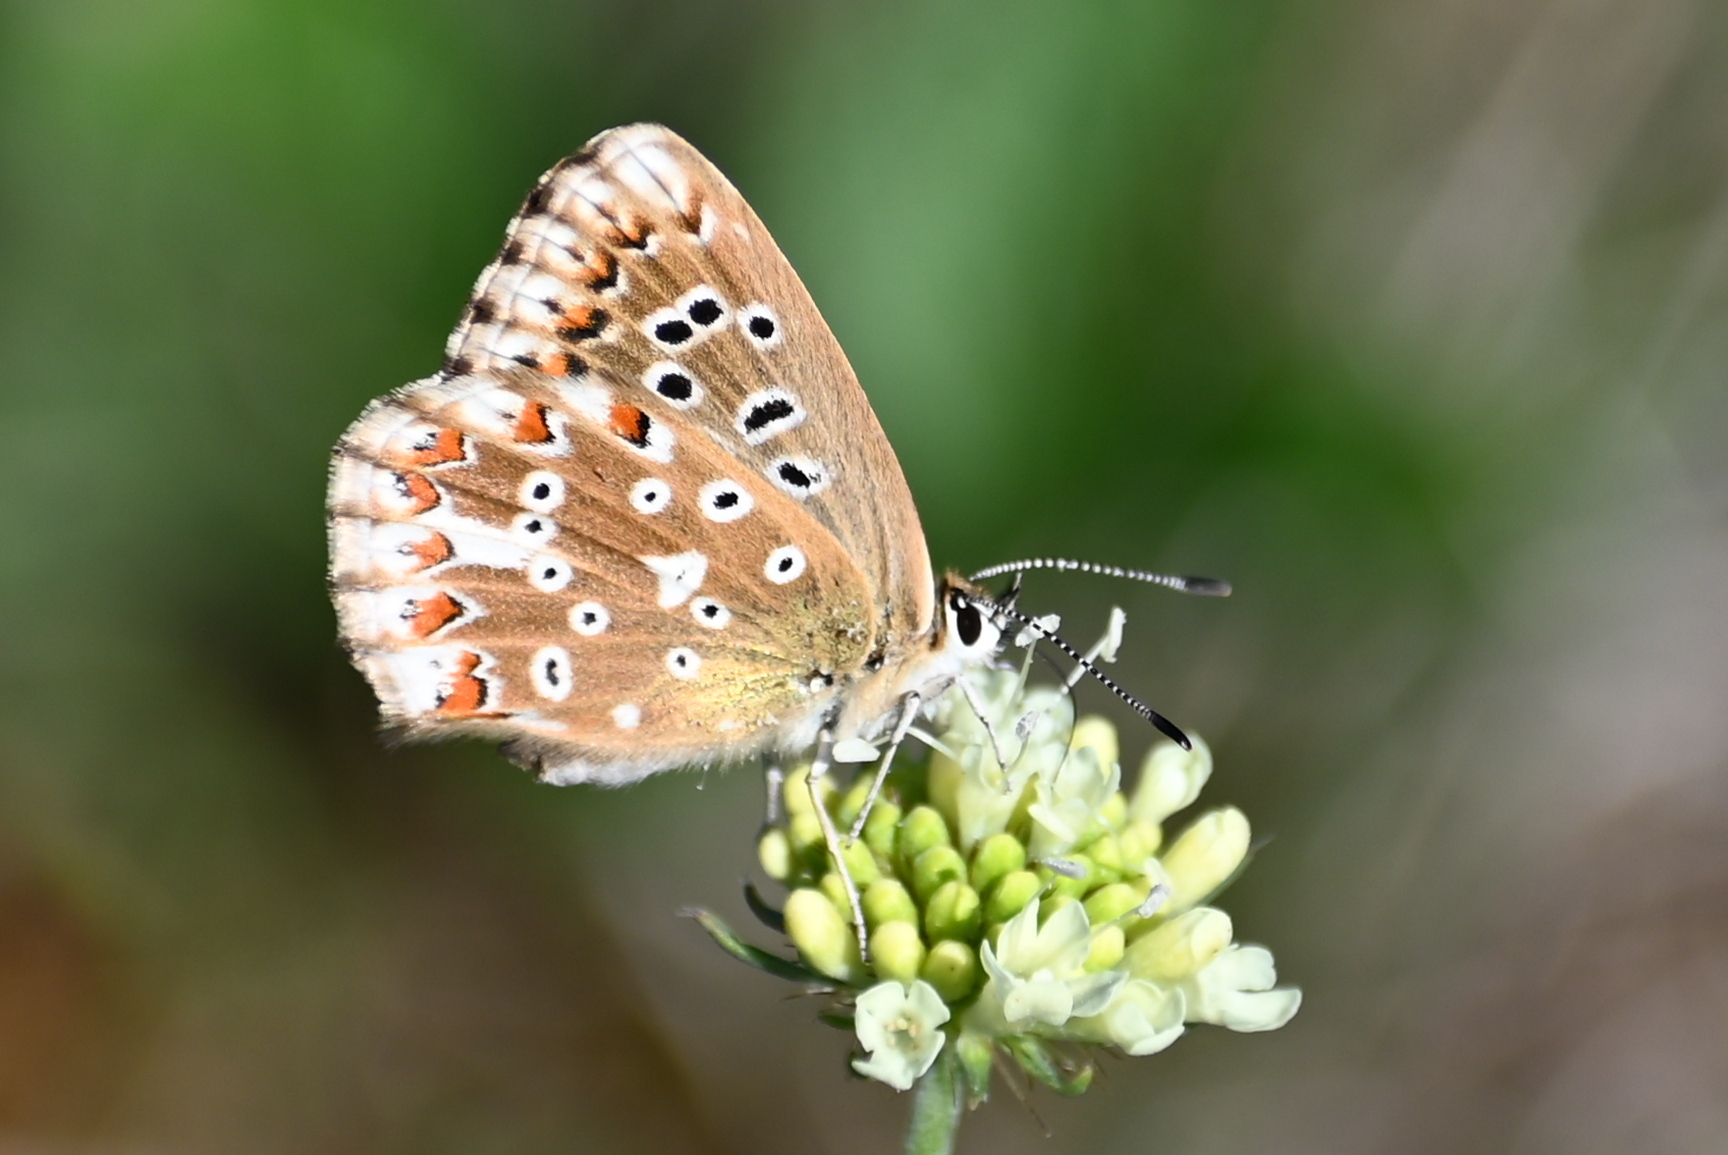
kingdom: Animalia
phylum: Arthropoda
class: Insecta
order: Lepidoptera
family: Lycaenidae
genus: Lysandra
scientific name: Lysandra coridon
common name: Chalkhill blue
